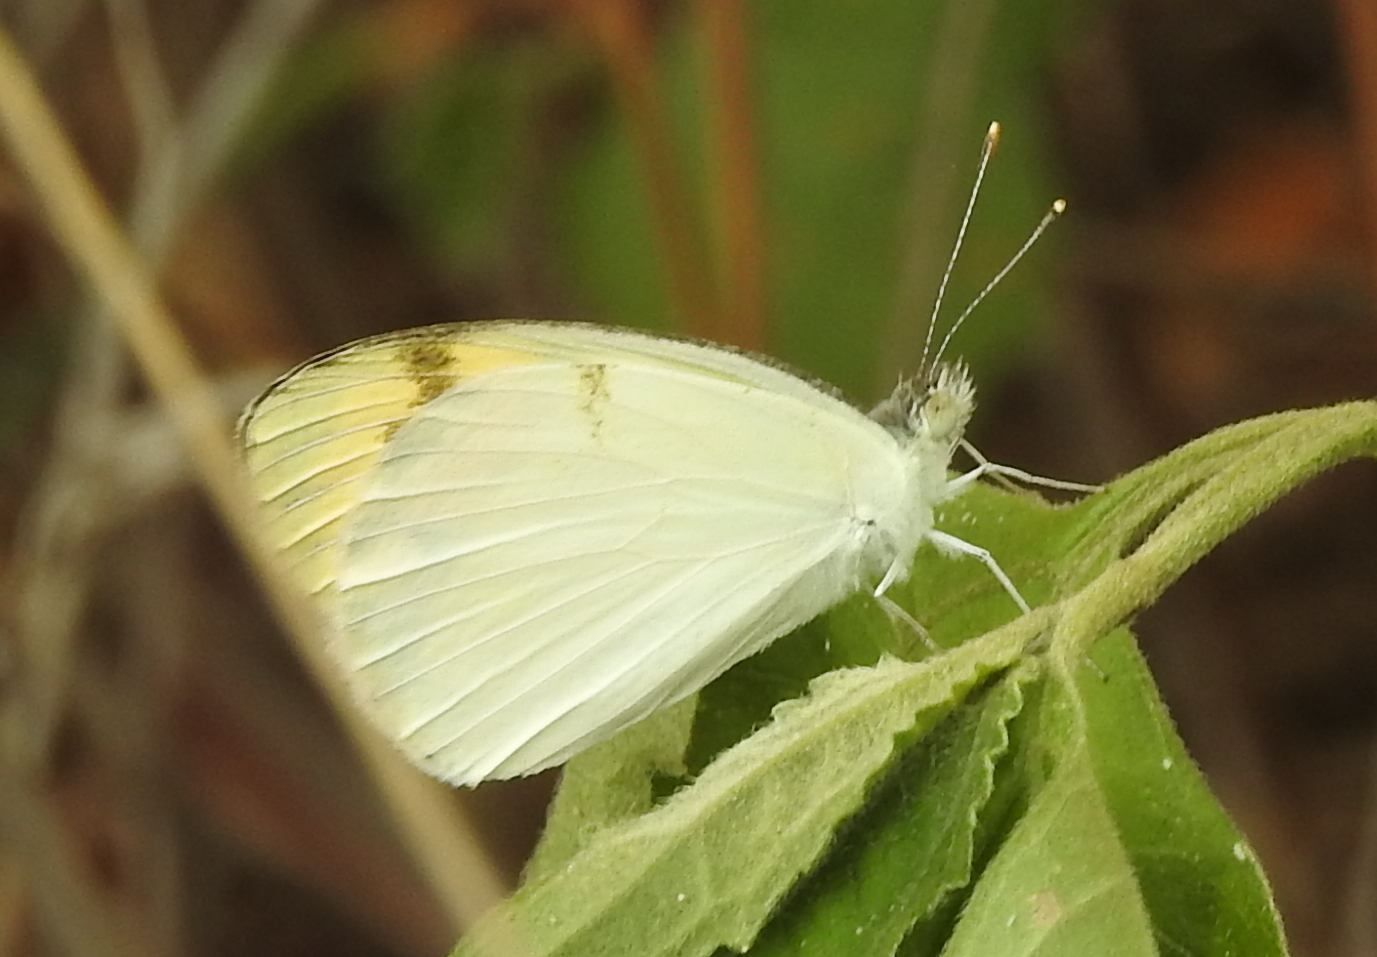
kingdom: Animalia
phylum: Arthropoda
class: Insecta
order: Lepidoptera
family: Pieridae
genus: Colotis
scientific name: Colotis aurora
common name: Plain orange-tip
